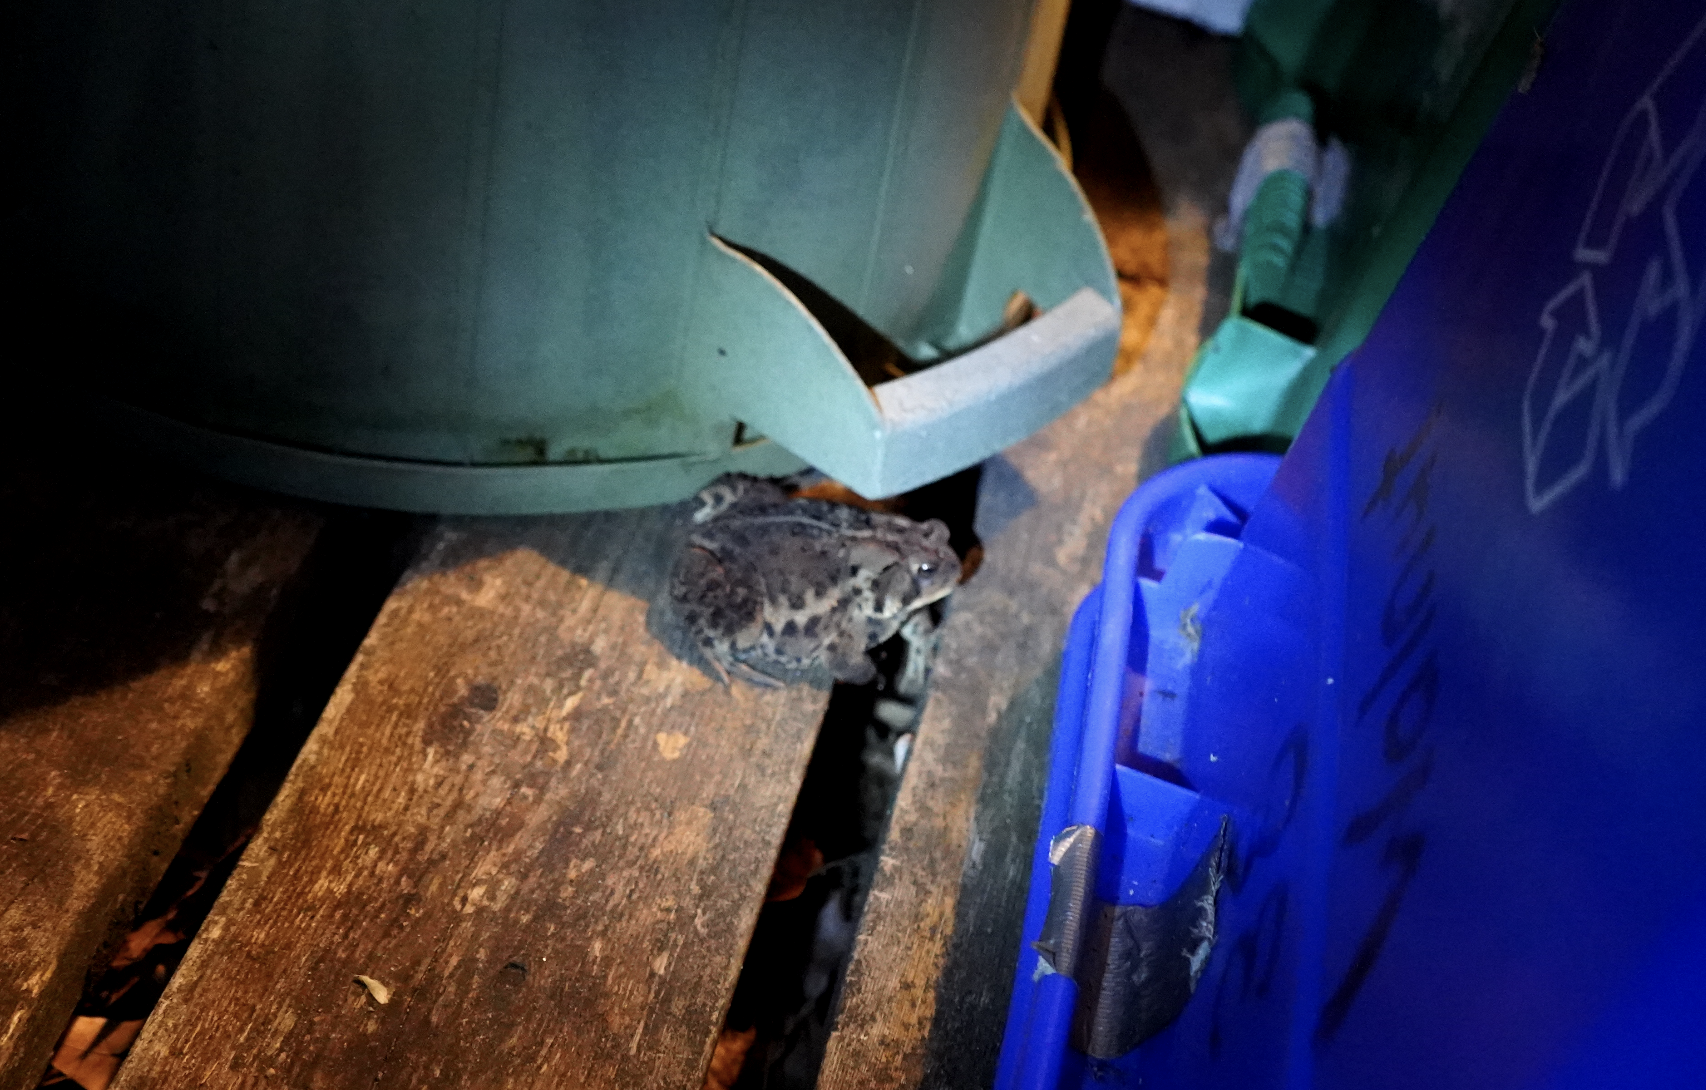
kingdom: Animalia
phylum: Chordata
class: Amphibia
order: Anura
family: Bufonidae
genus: Anaxyrus
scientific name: Anaxyrus americanus
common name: American toad
